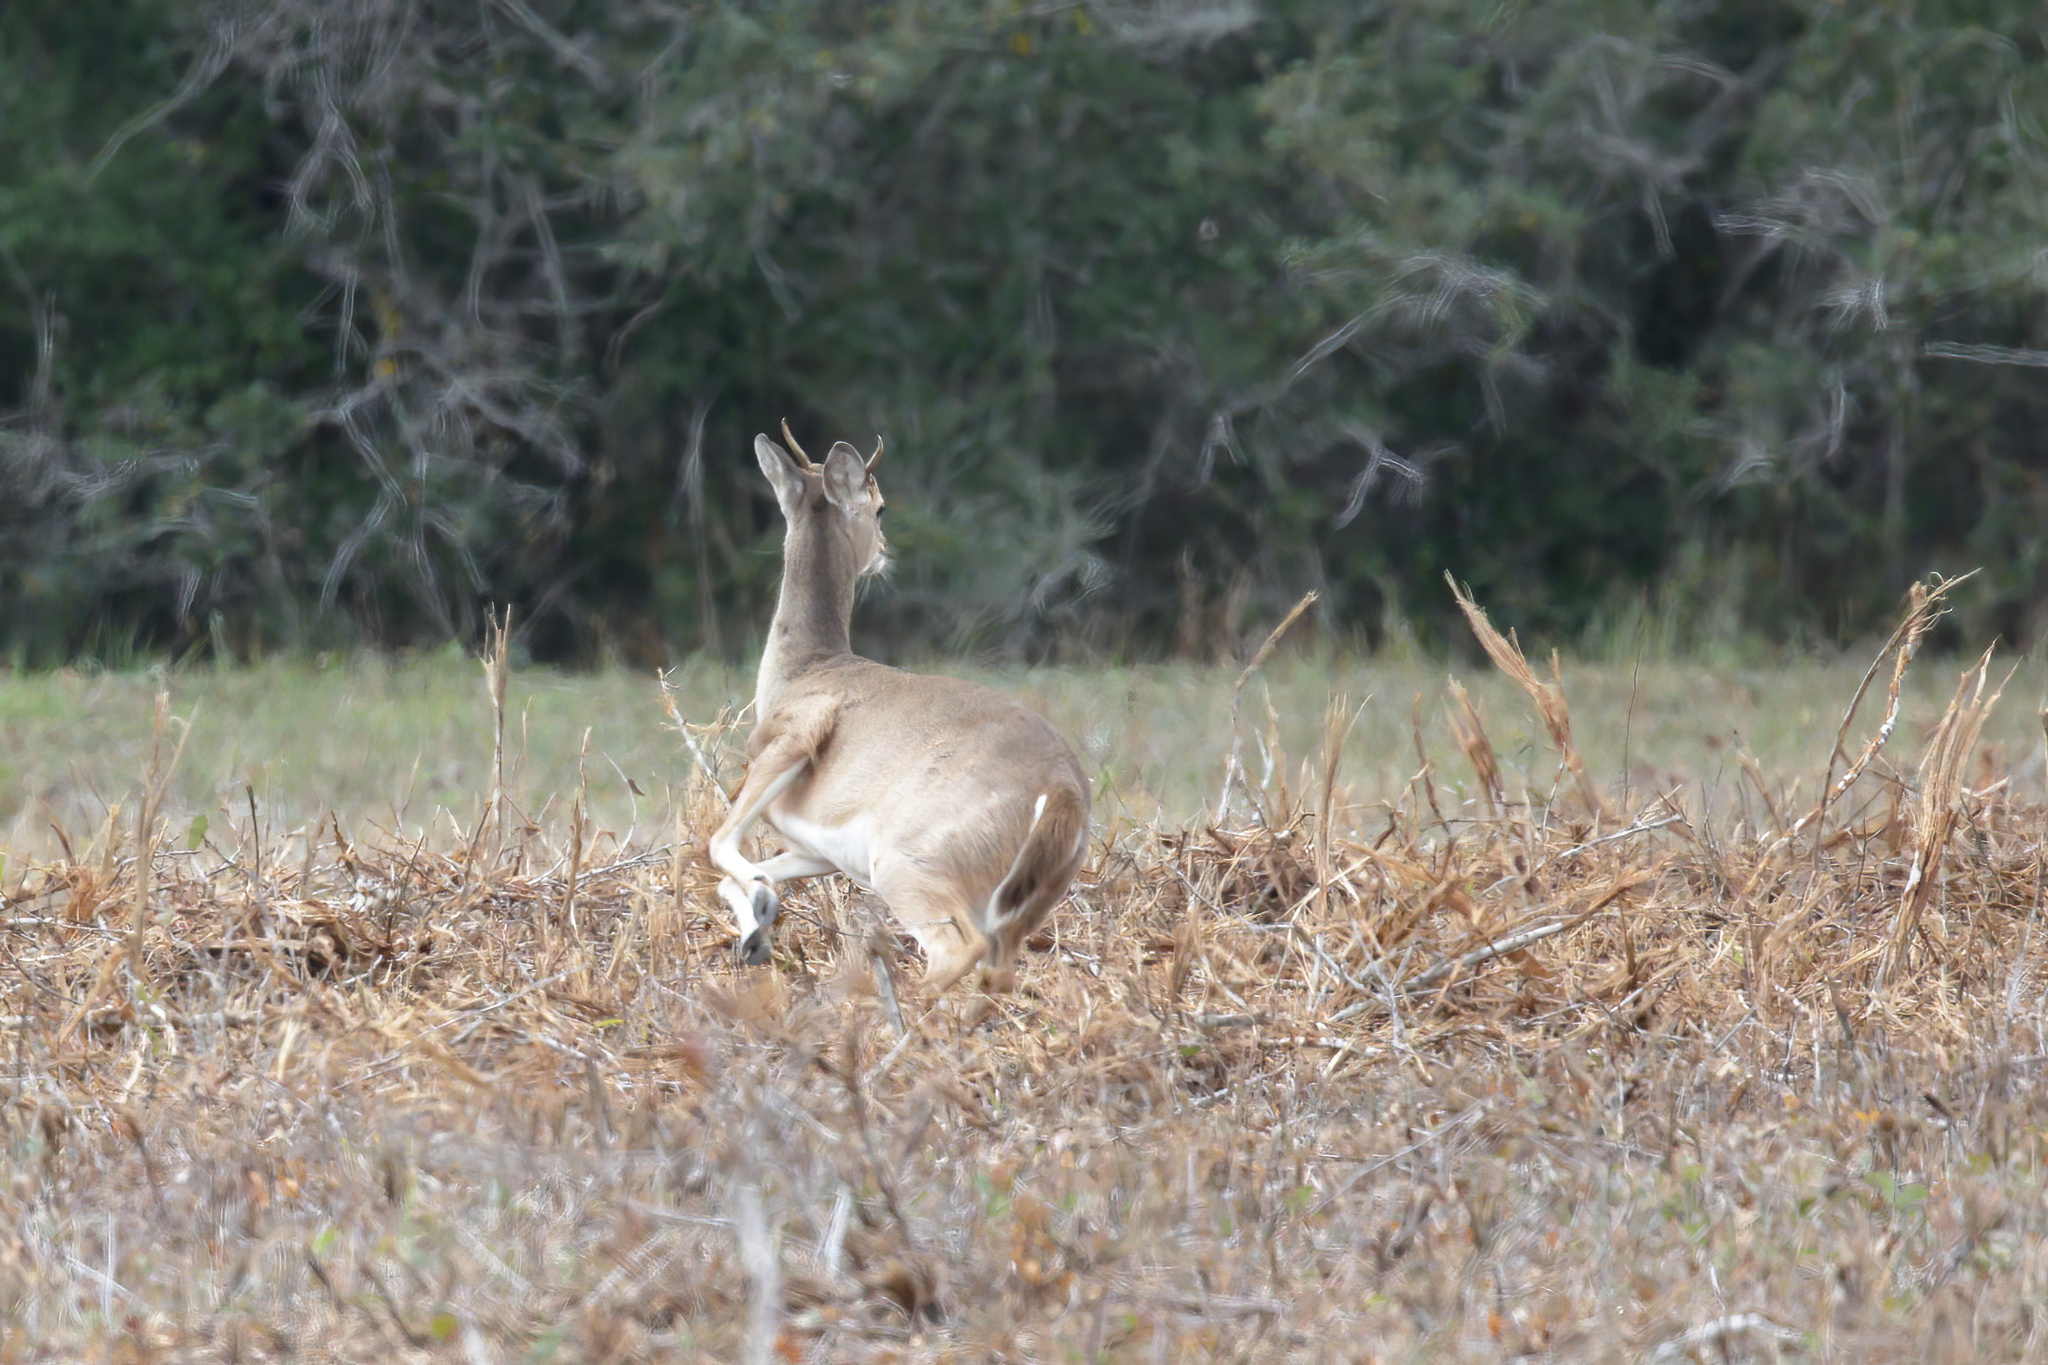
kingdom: Animalia
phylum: Chordata
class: Mammalia
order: Artiodactyla
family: Cervidae
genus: Odocoileus
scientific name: Odocoileus virginianus
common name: White-tailed deer
